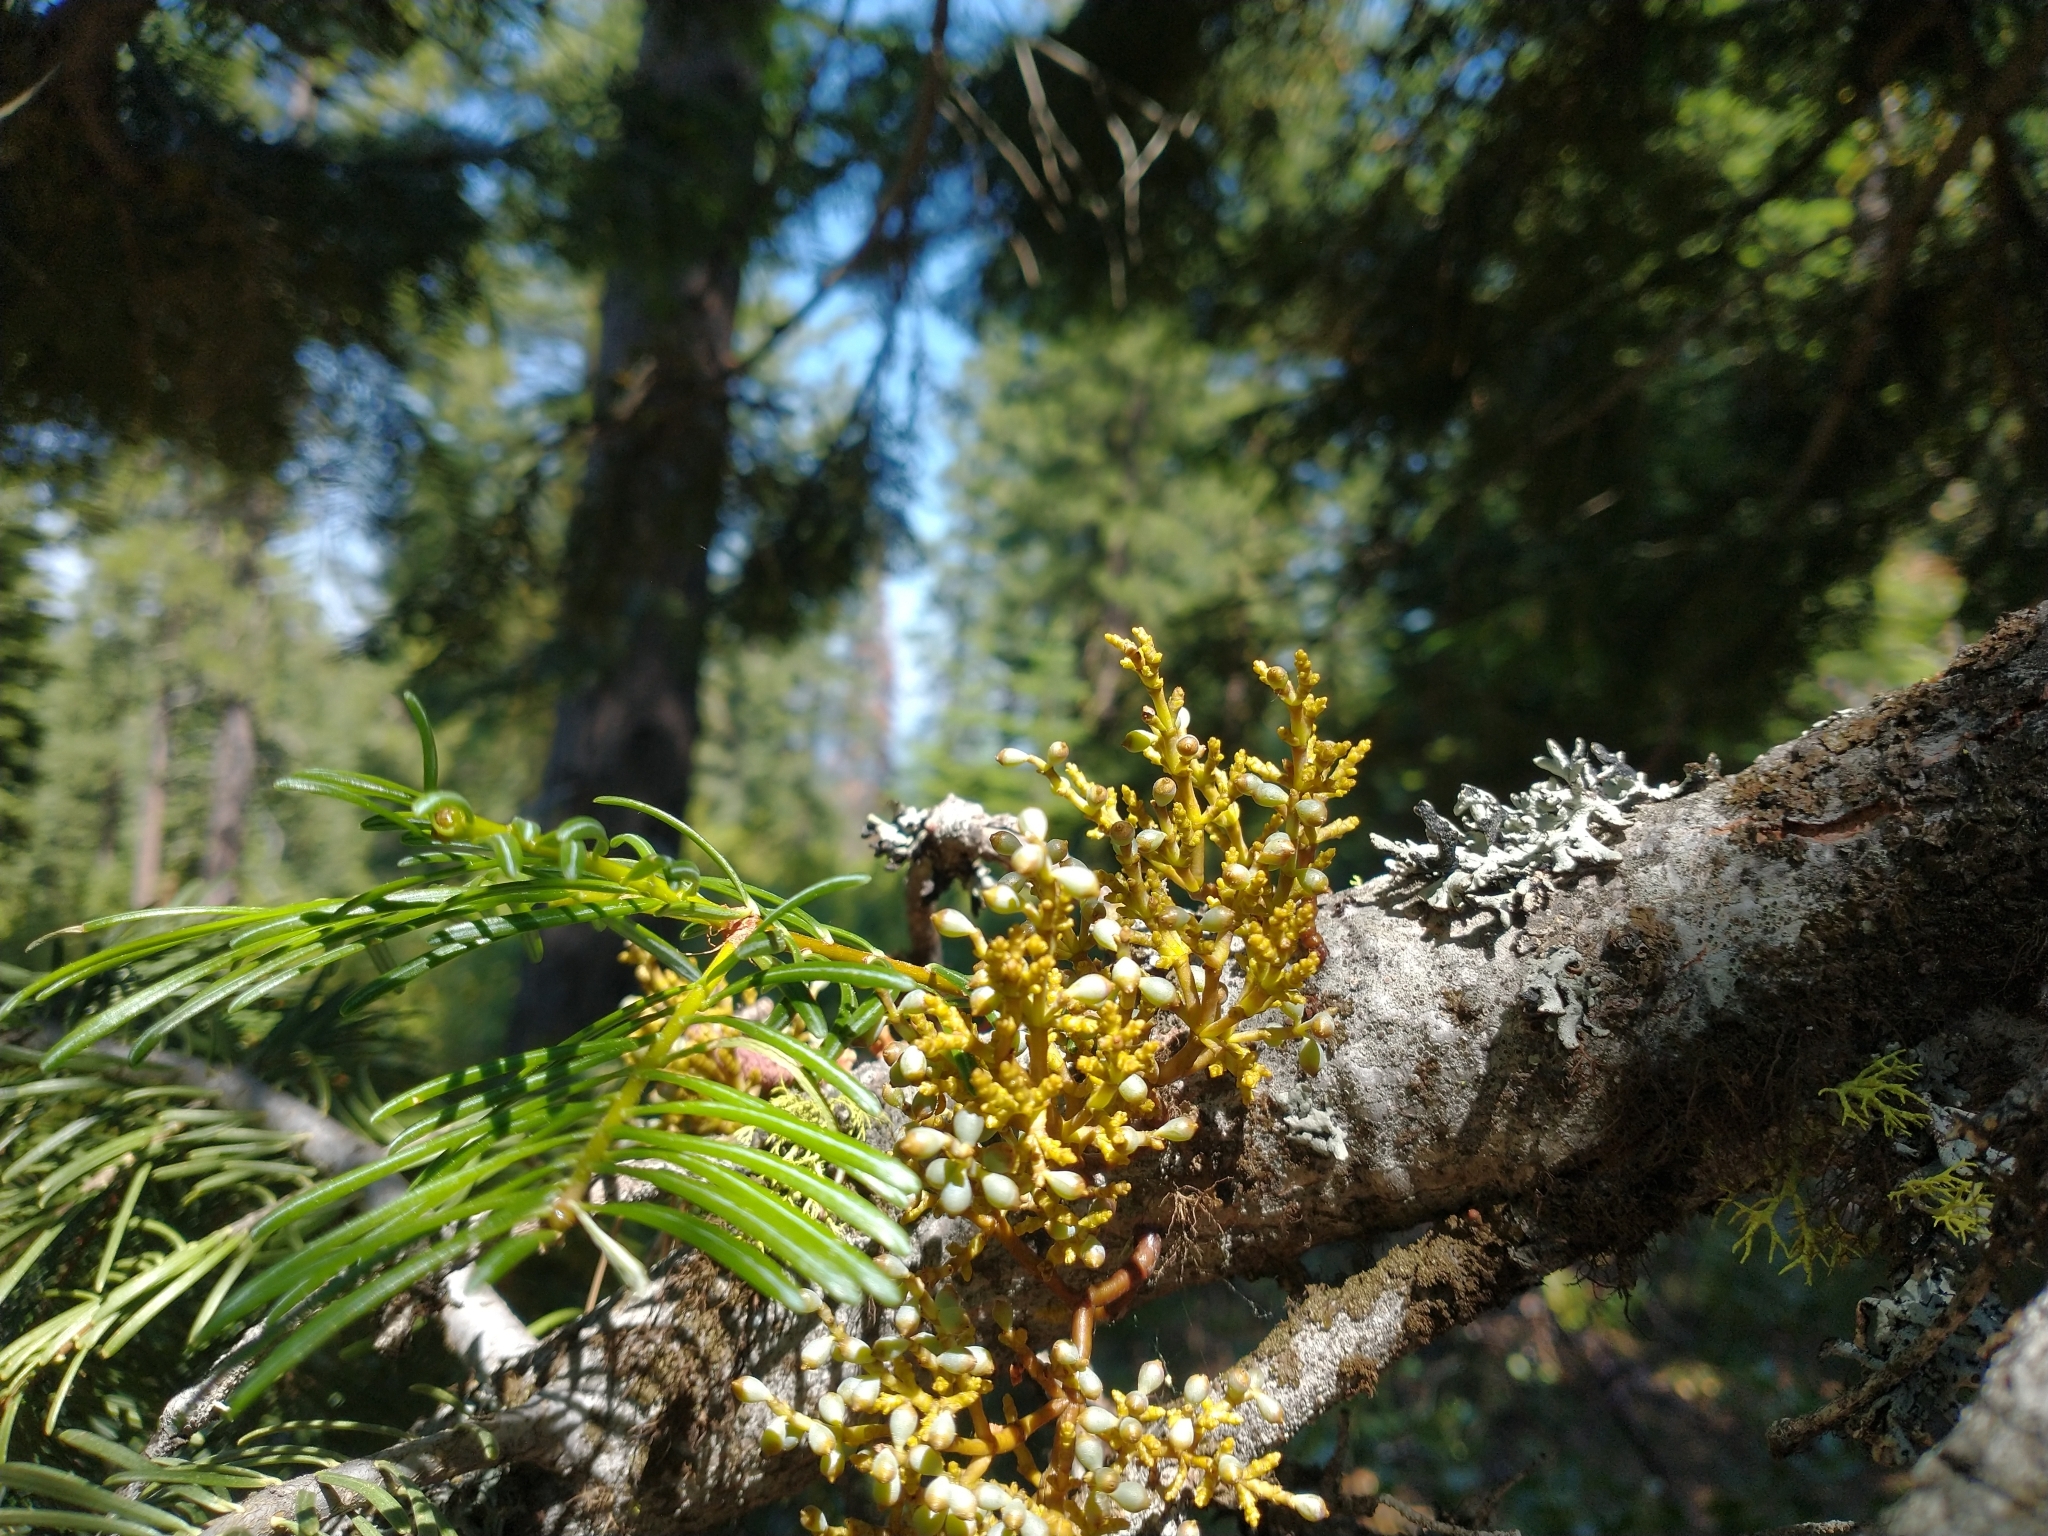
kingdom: Plantae
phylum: Tracheophyta
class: Magnoliopsida
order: Santalales
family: Viscaceae
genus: Arceuthobium
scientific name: Arceuthobium abietinum
